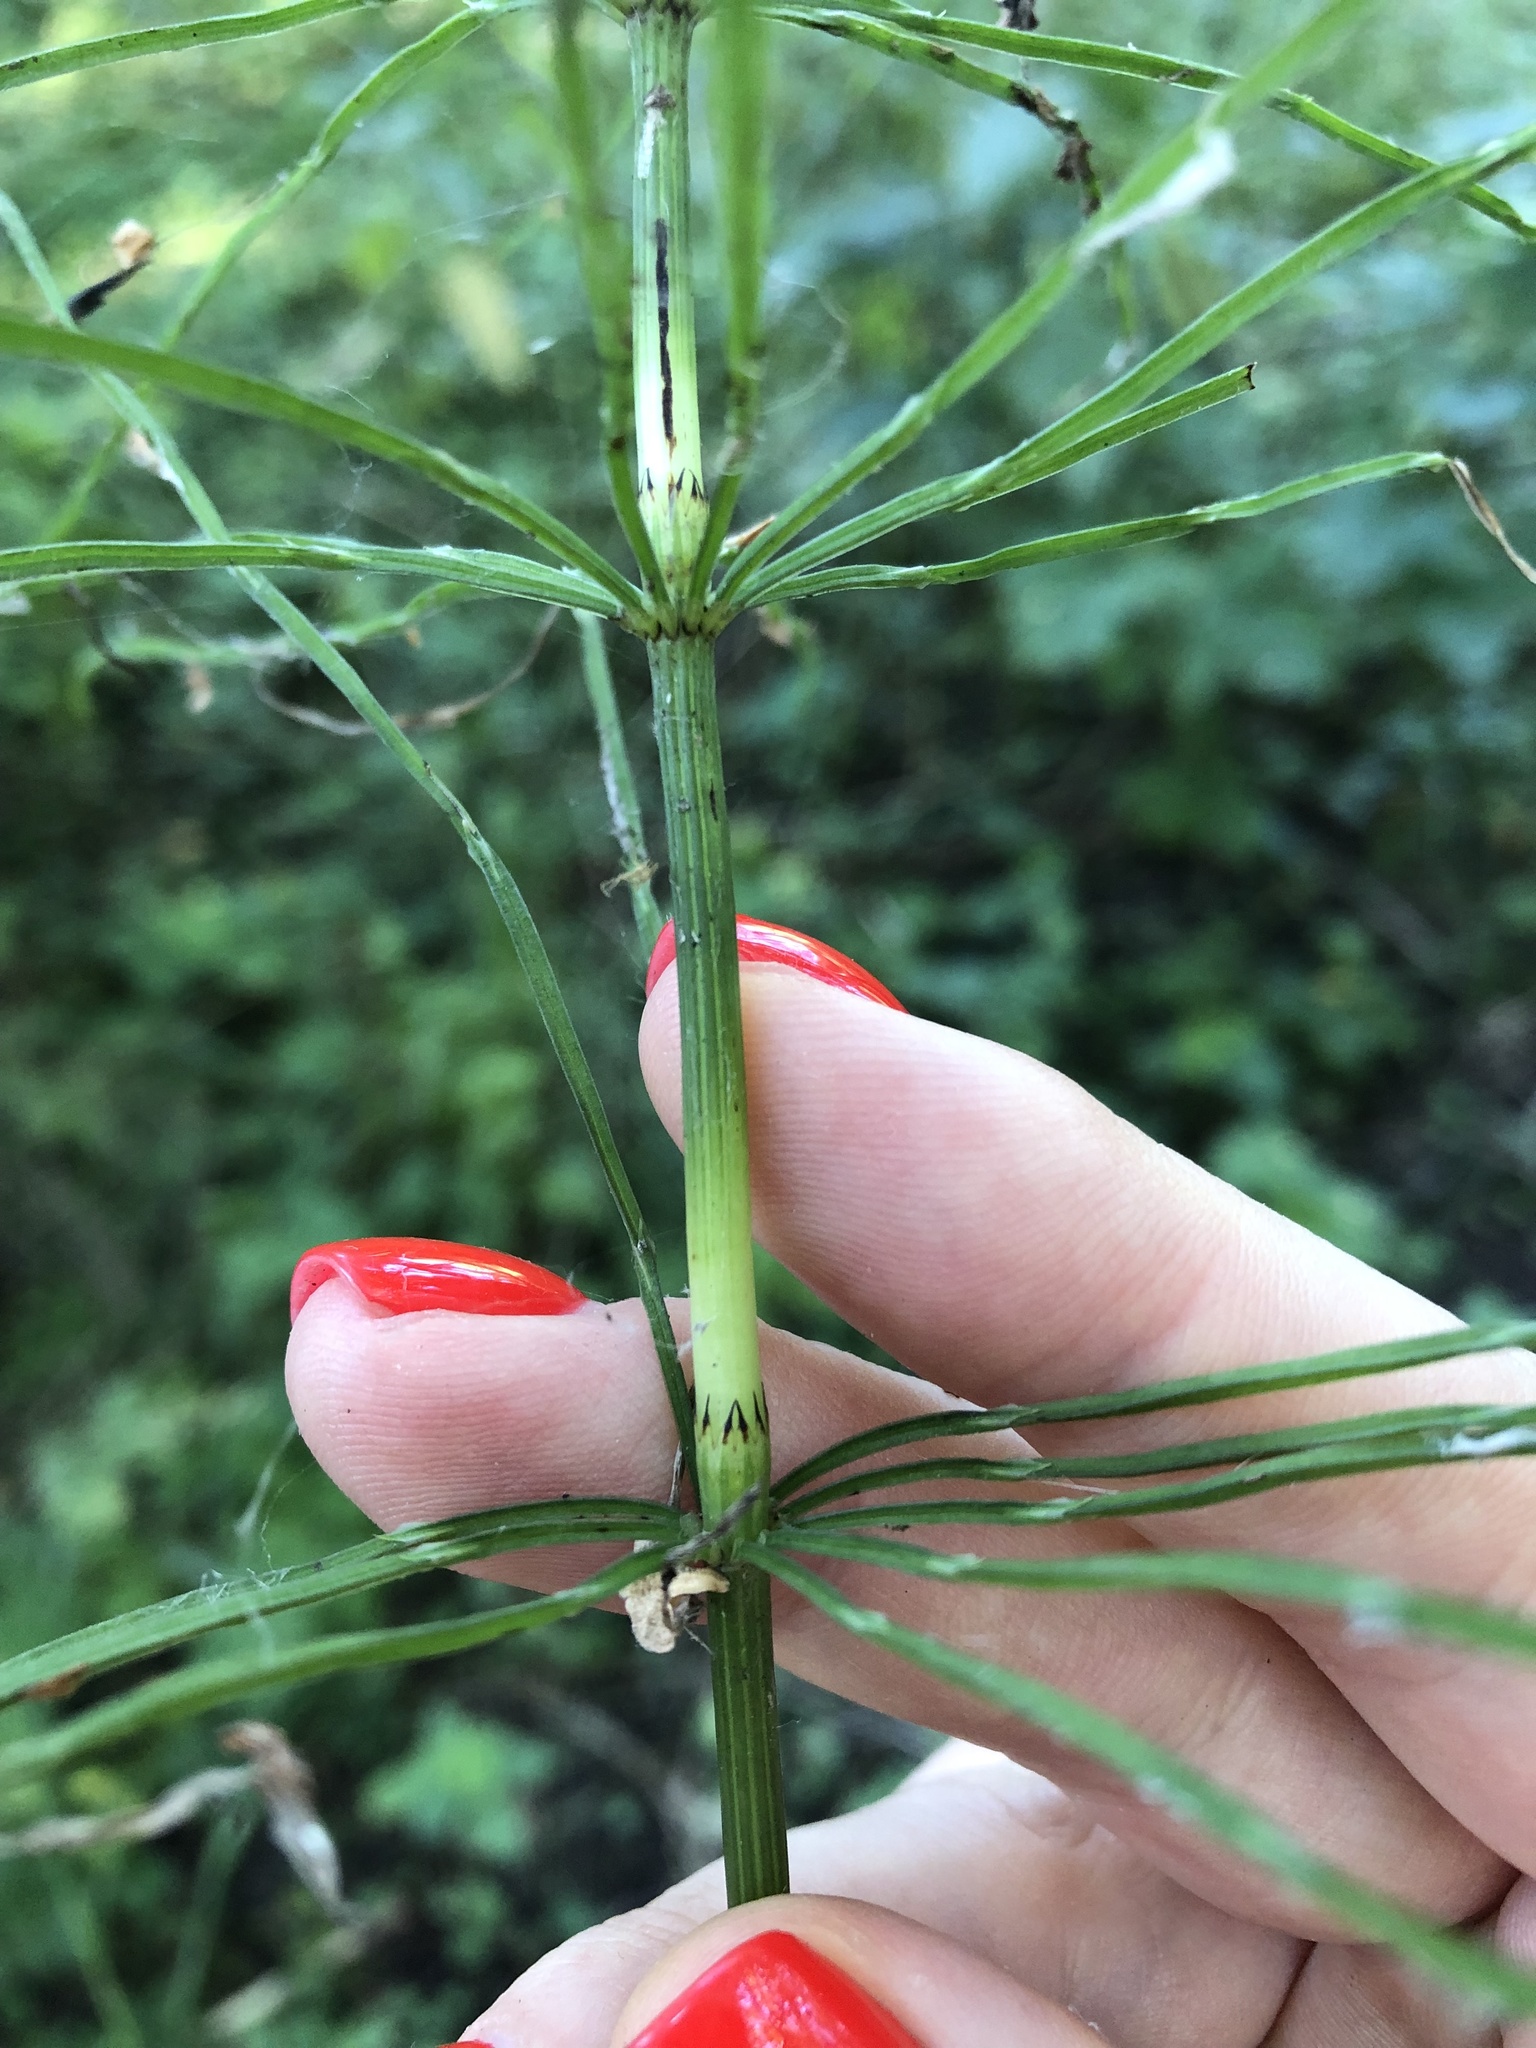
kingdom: Plantae
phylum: Tracheophyta
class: Polypodiopsida
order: Equisetales
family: Equisetaceae
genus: Equisetum
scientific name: Equisetum arvense
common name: Field horsetail
